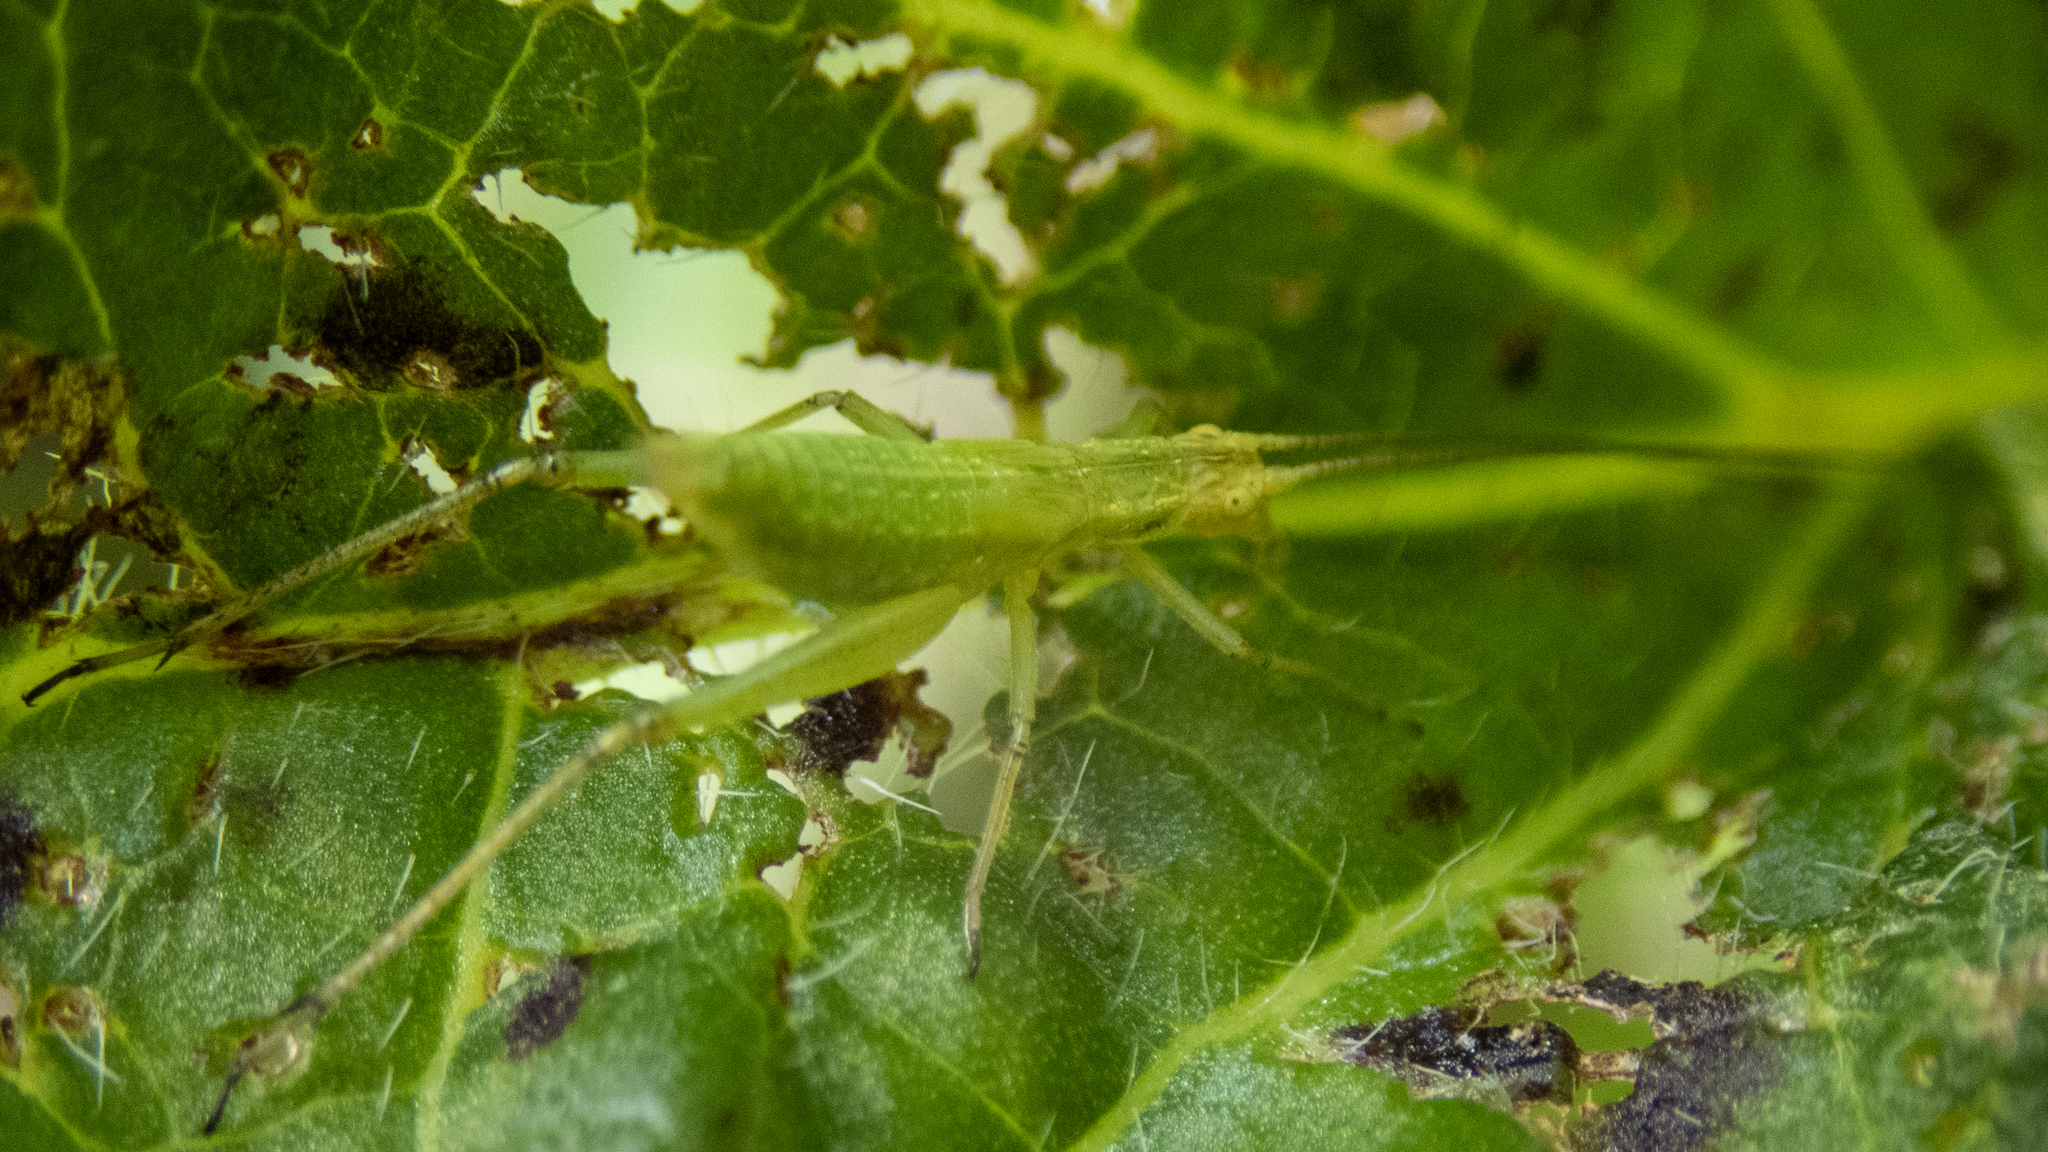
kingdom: Animalia
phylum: Arthropoda
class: Insecta
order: Orthoptera
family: Gryllidae
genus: Oecanthus
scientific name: Oecanthus nigricornis
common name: Black-horned tree cricket
